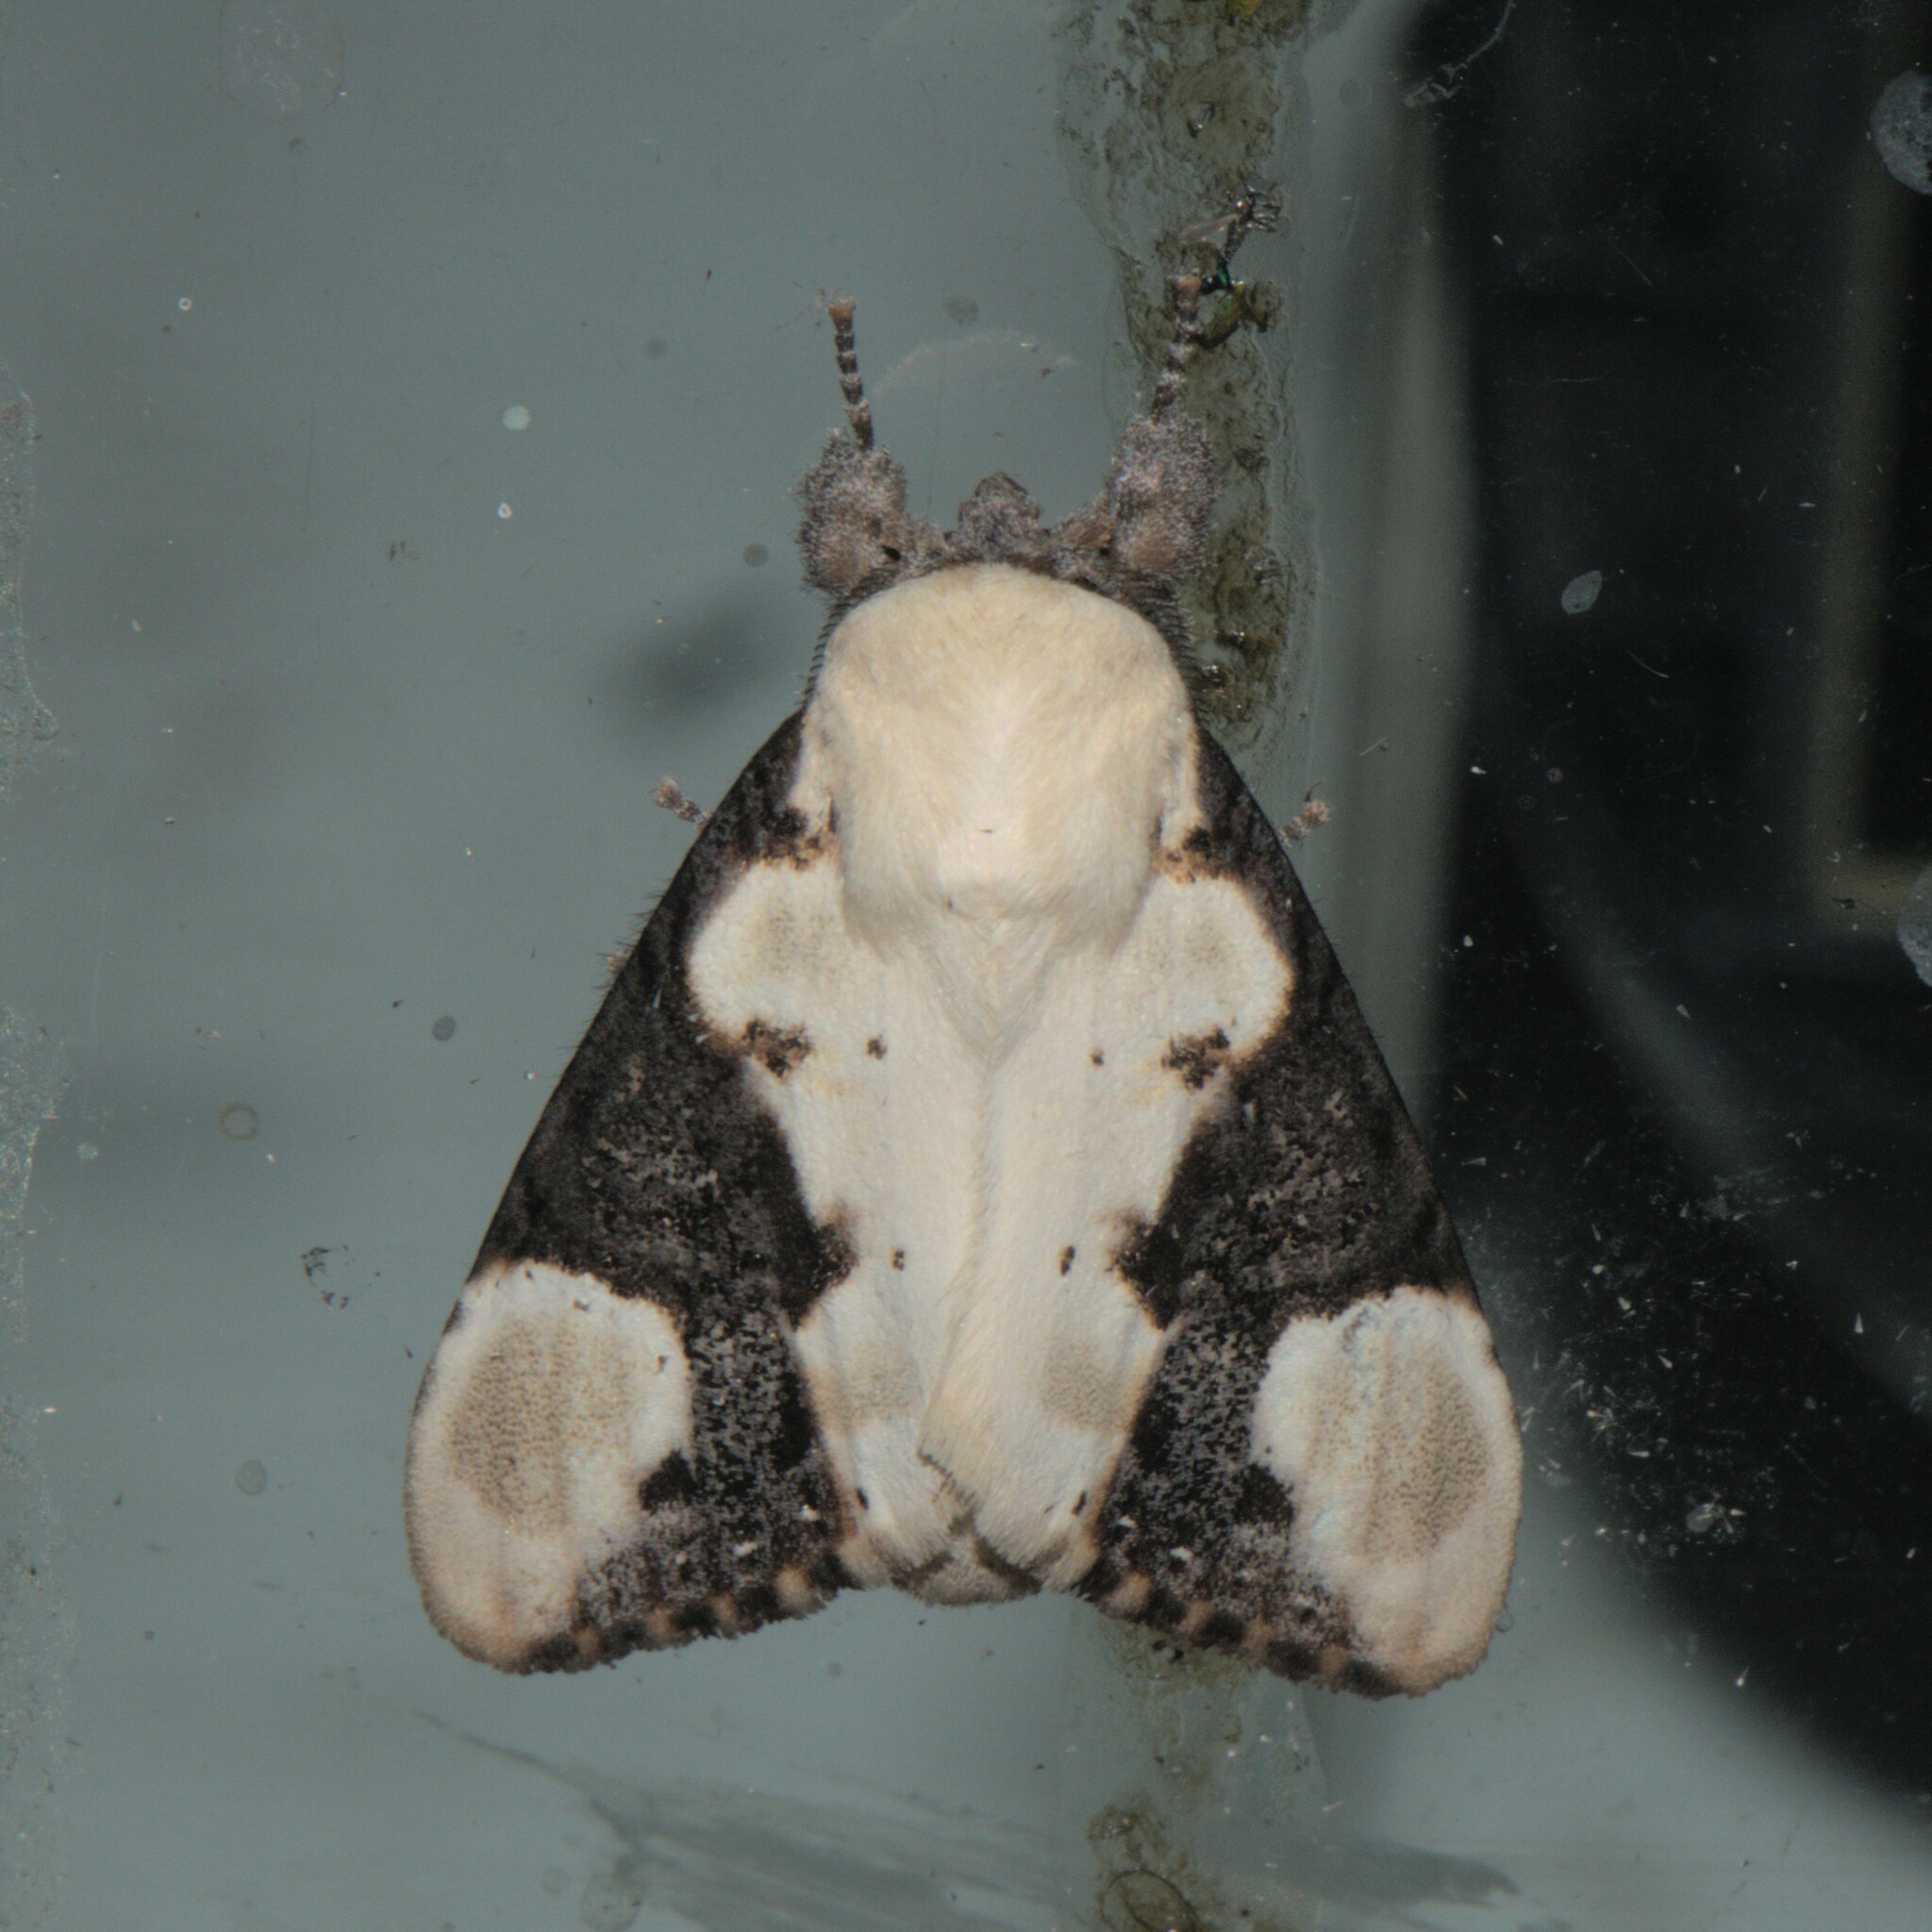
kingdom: Animalia
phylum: Arthropoda
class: Insecta
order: Lepidoptera
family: Notodontidae
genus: Formofentonia
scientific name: Formofentonia orbifer
